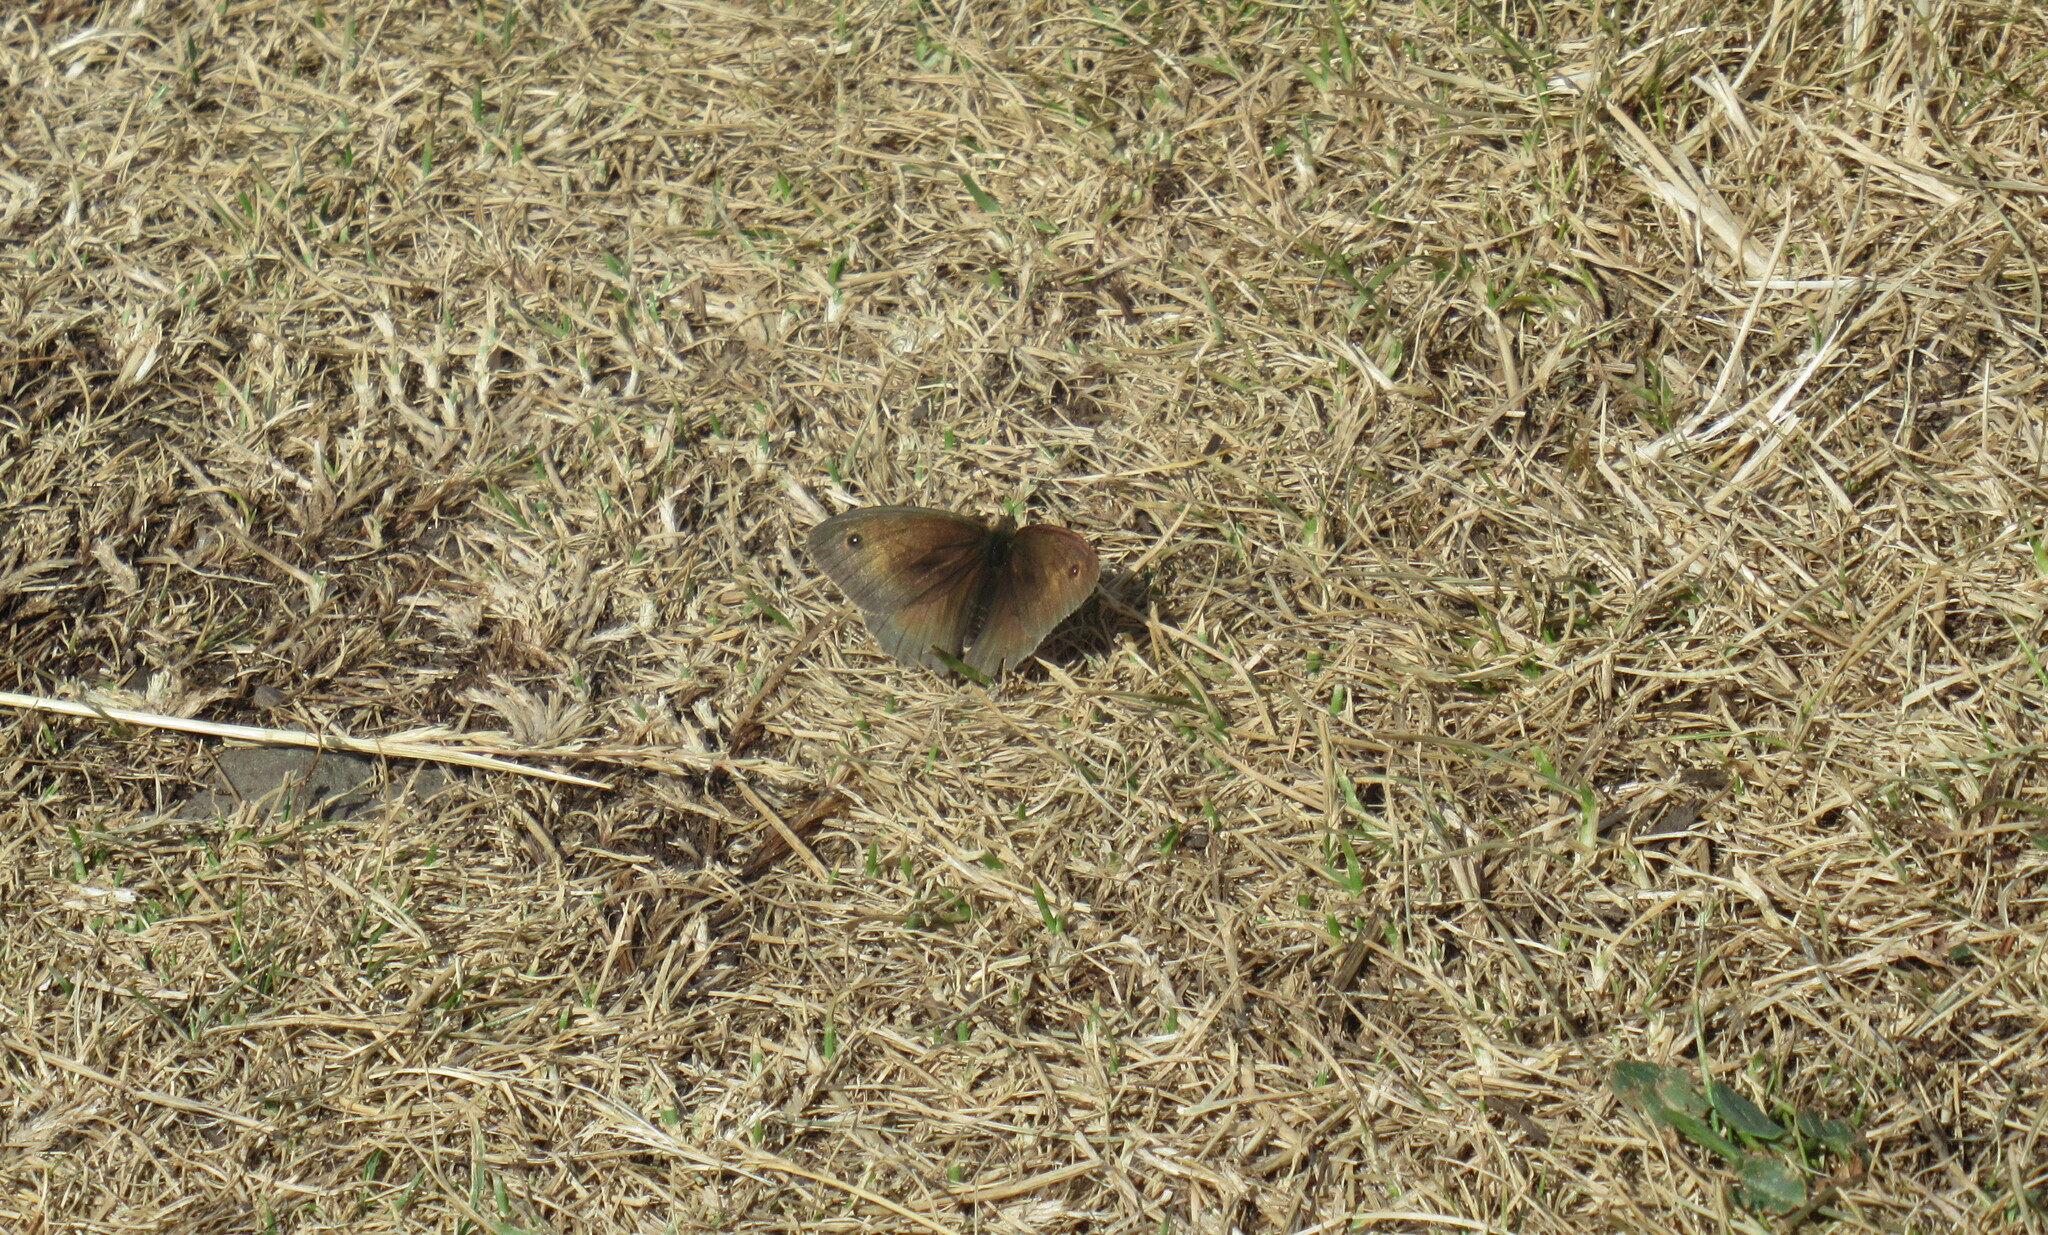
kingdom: Animalia
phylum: Arthropoda
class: Insecta
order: Lepidoptera
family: Nymphalidae
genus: Maniola
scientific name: Maniola jurtina
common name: Meadow brown
